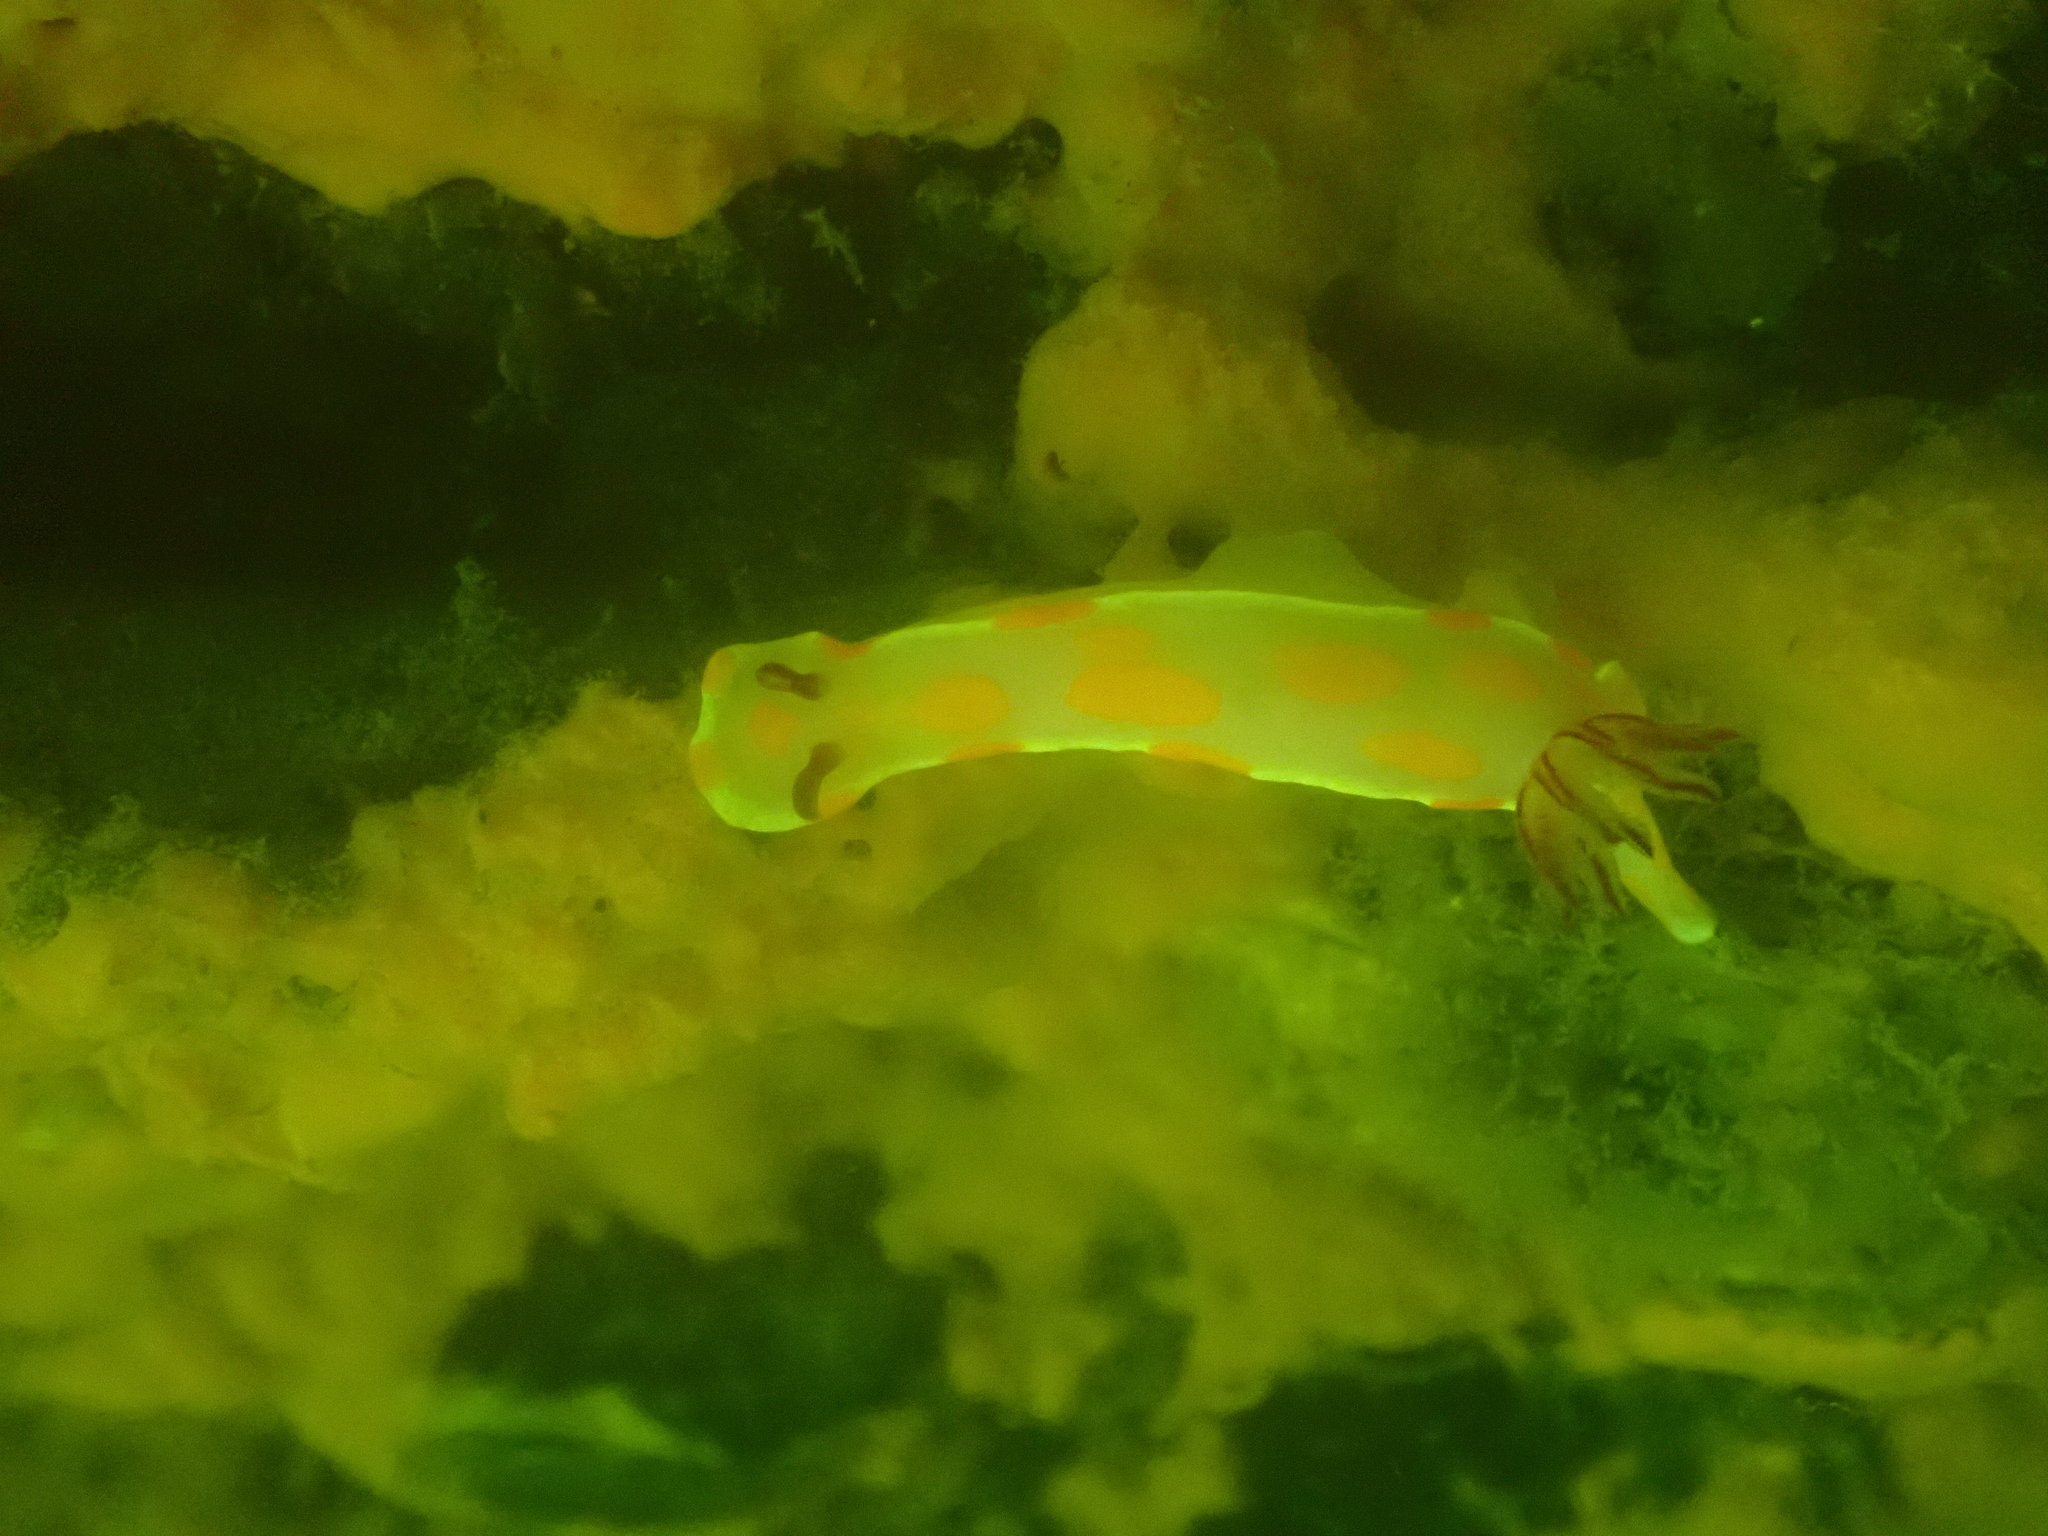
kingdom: Animalia
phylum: Mollusca
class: Gastropoda
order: Nudibranchia
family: Chromodorididae
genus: Ceratosoma
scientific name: Ceratosoma amoenum
